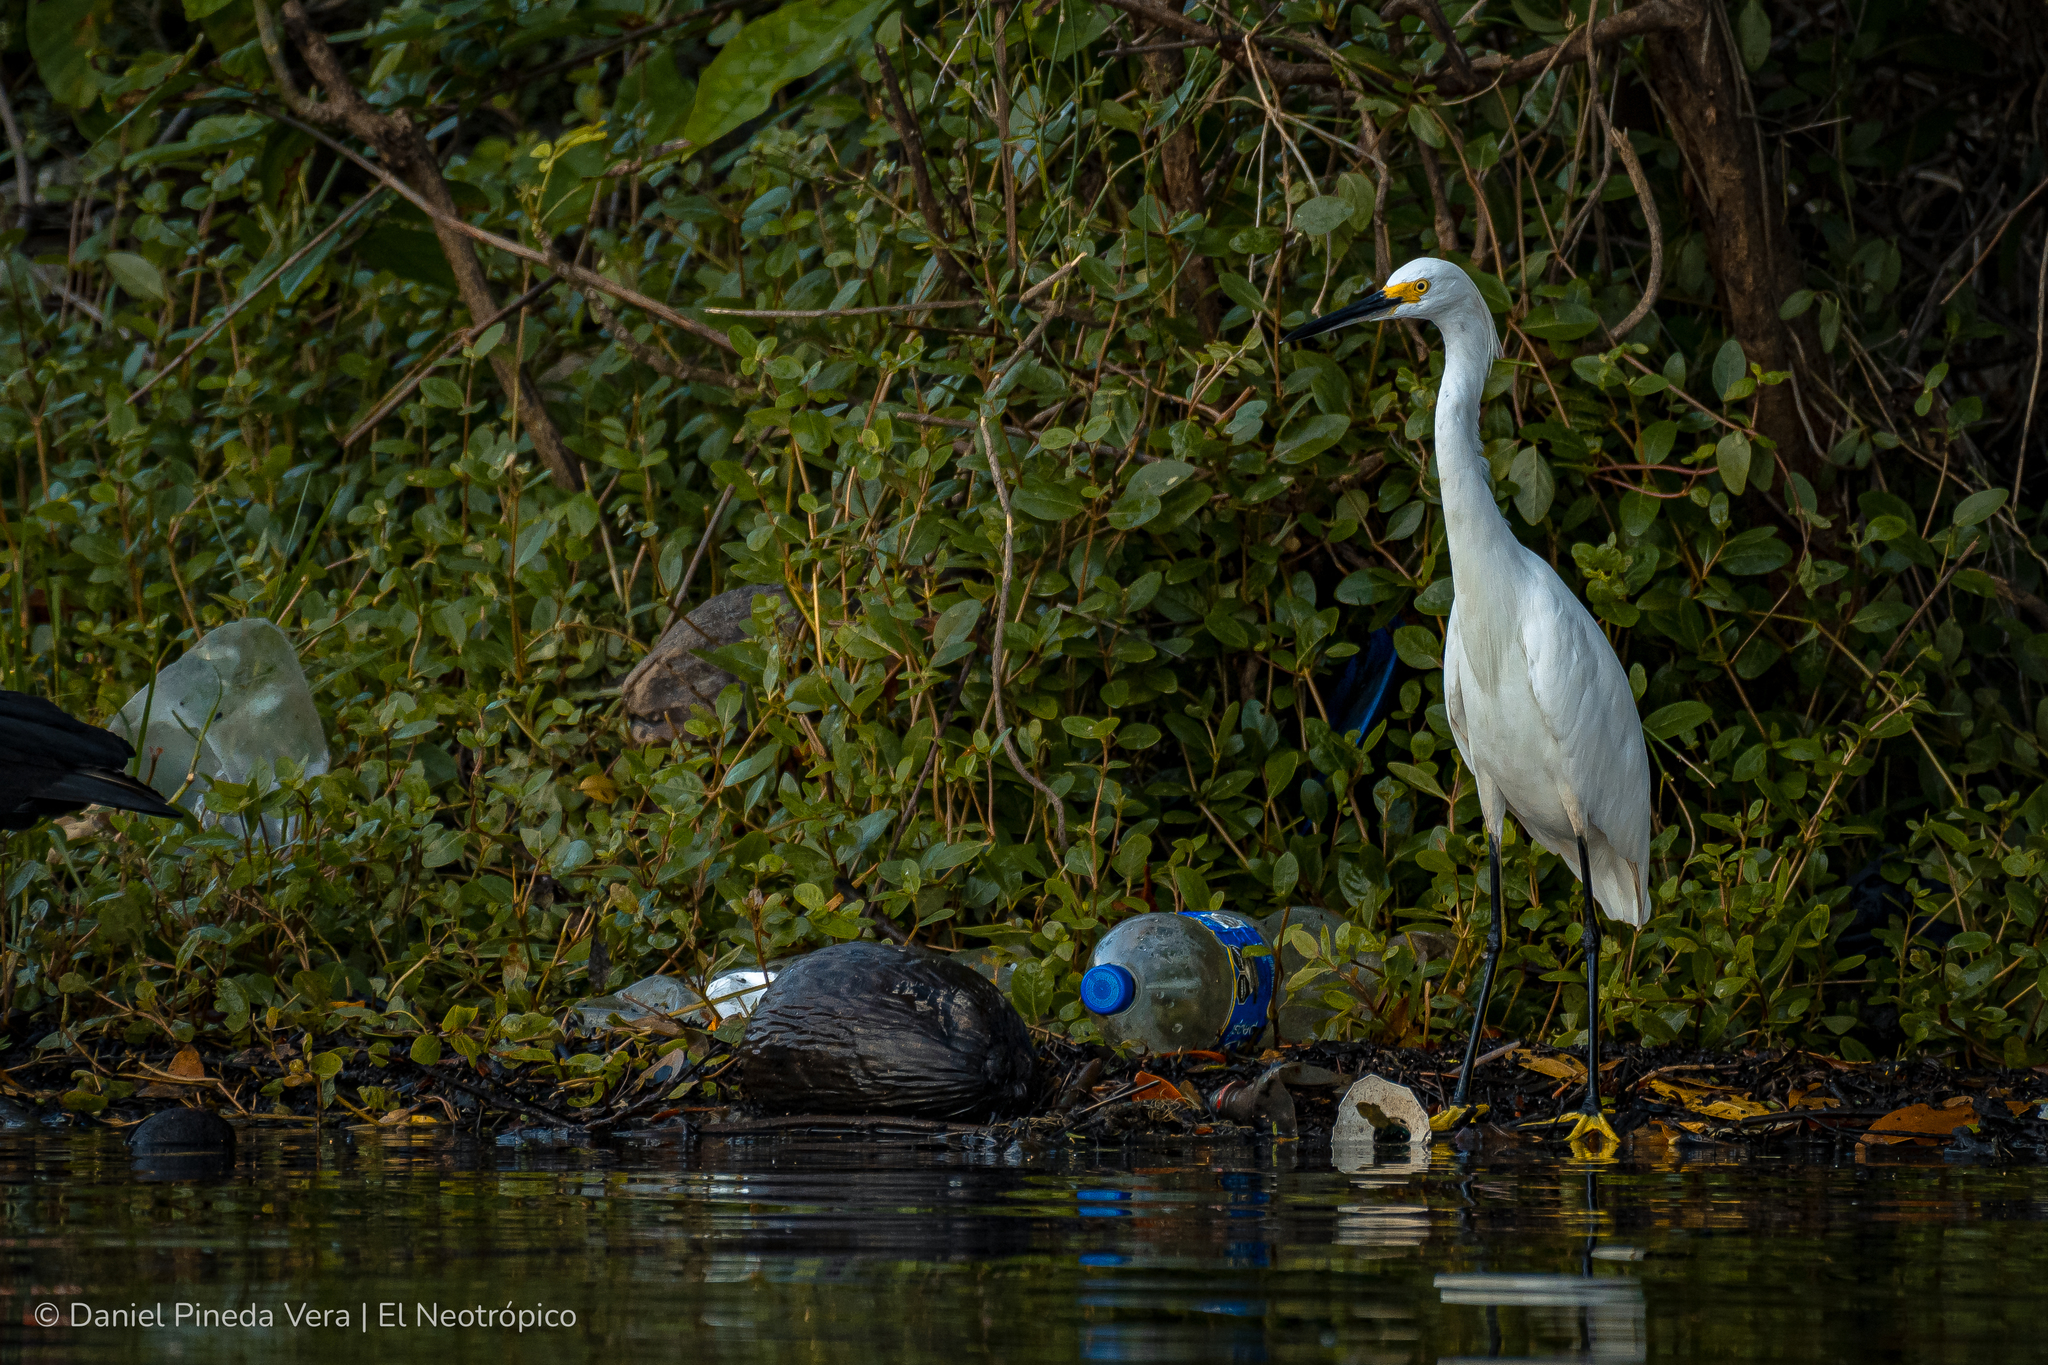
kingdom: Animalia
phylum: Chordata
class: Aves
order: Pelecaniformes
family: Ardeidae
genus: Egretta
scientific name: Egretta thula
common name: Snowy egret
